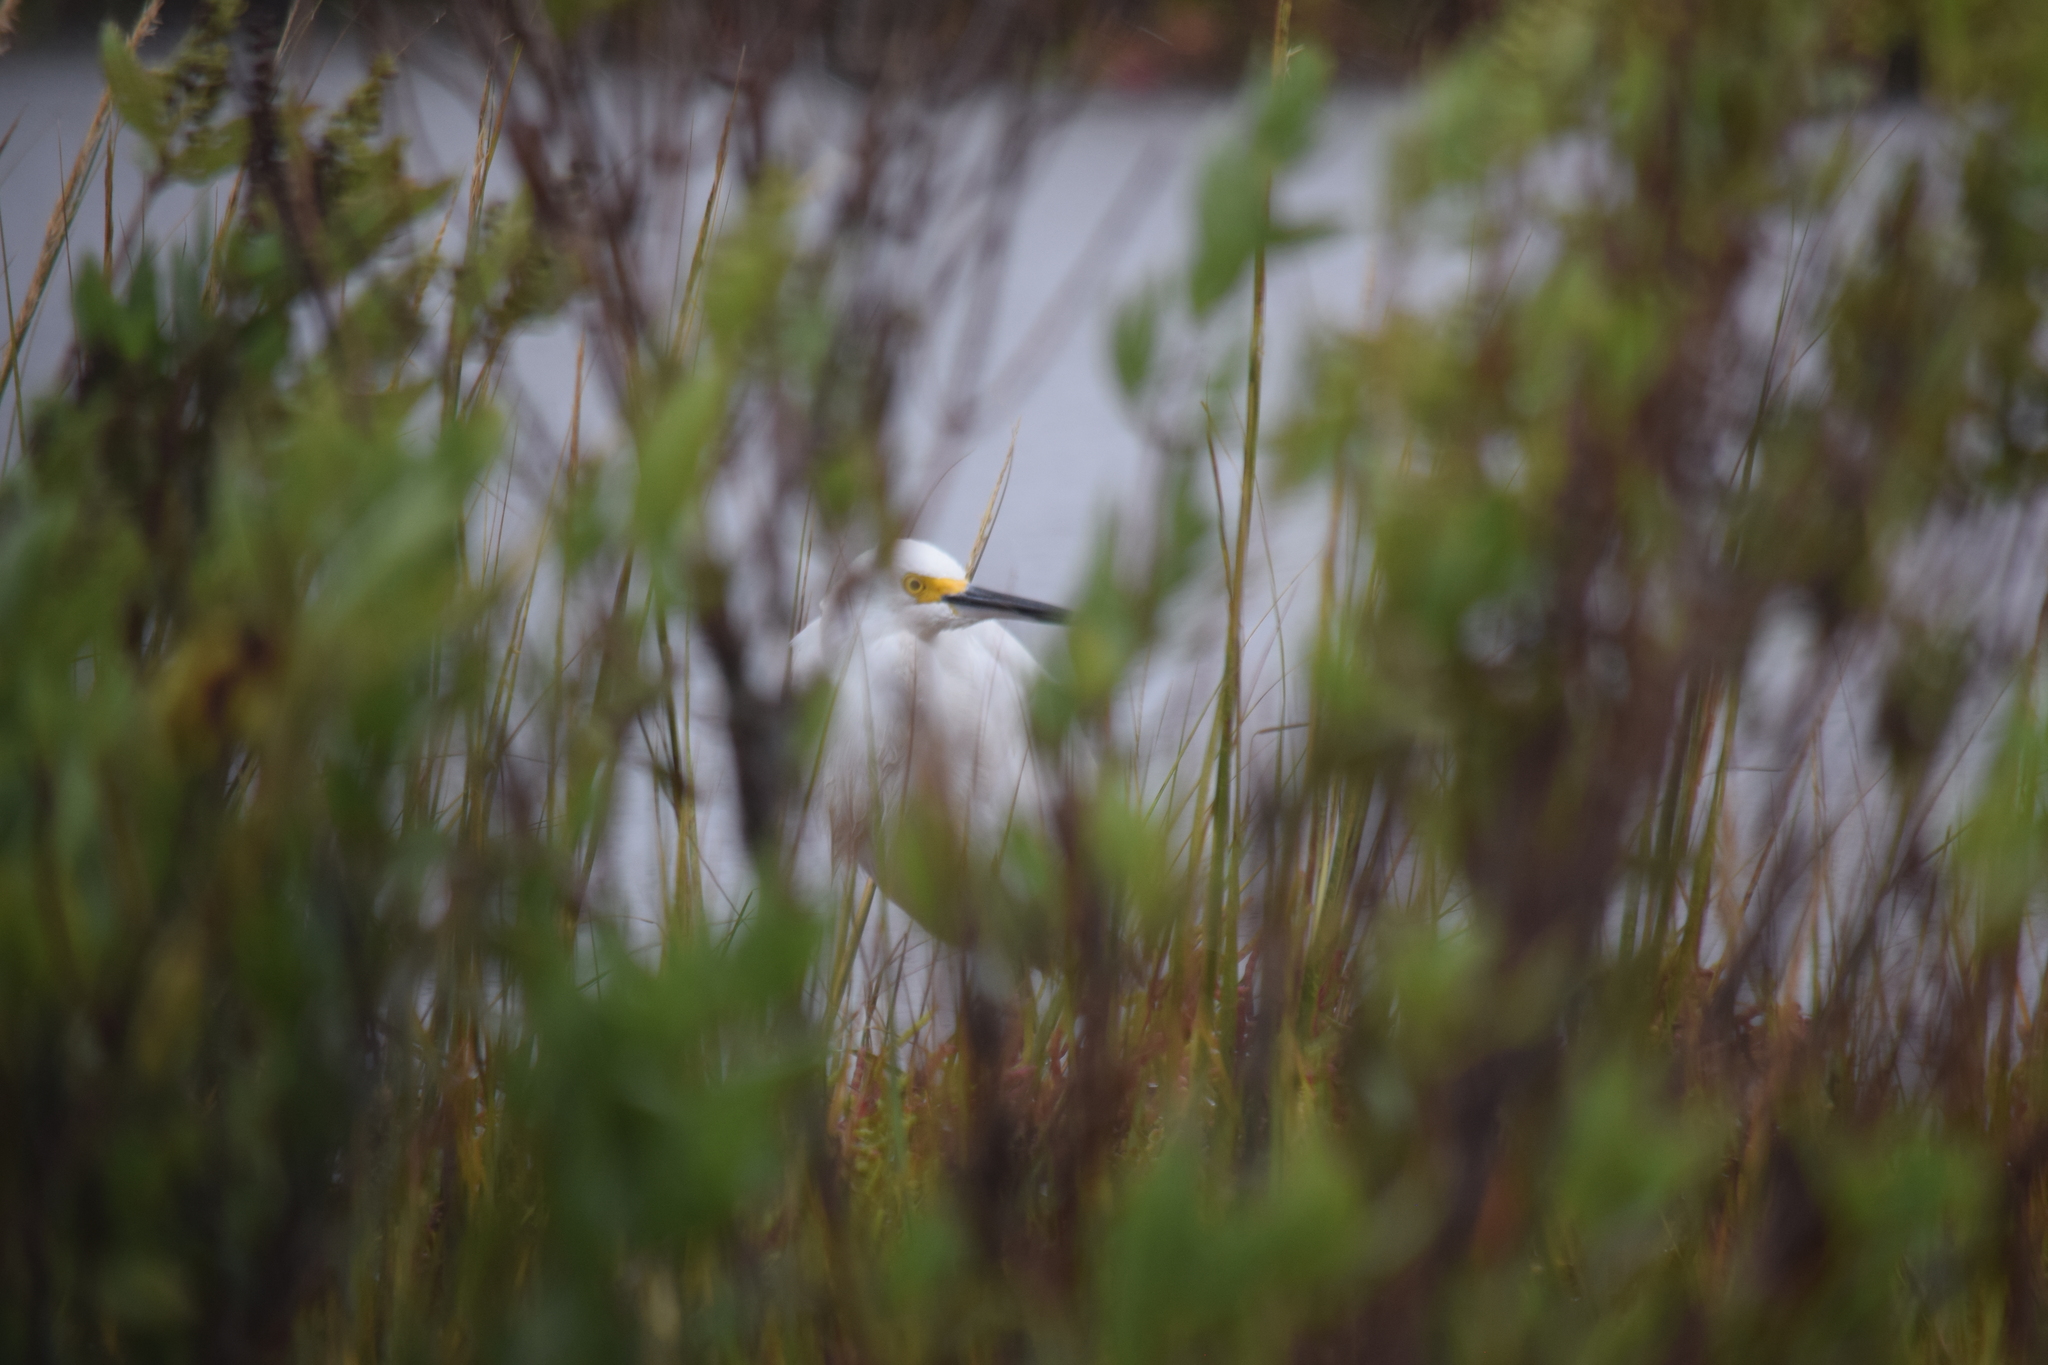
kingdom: Animalia
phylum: Chordata
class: Aves
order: Pelecaniformes
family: Ardeidae
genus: Egretta
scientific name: Egretta thula
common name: Snowy egret
